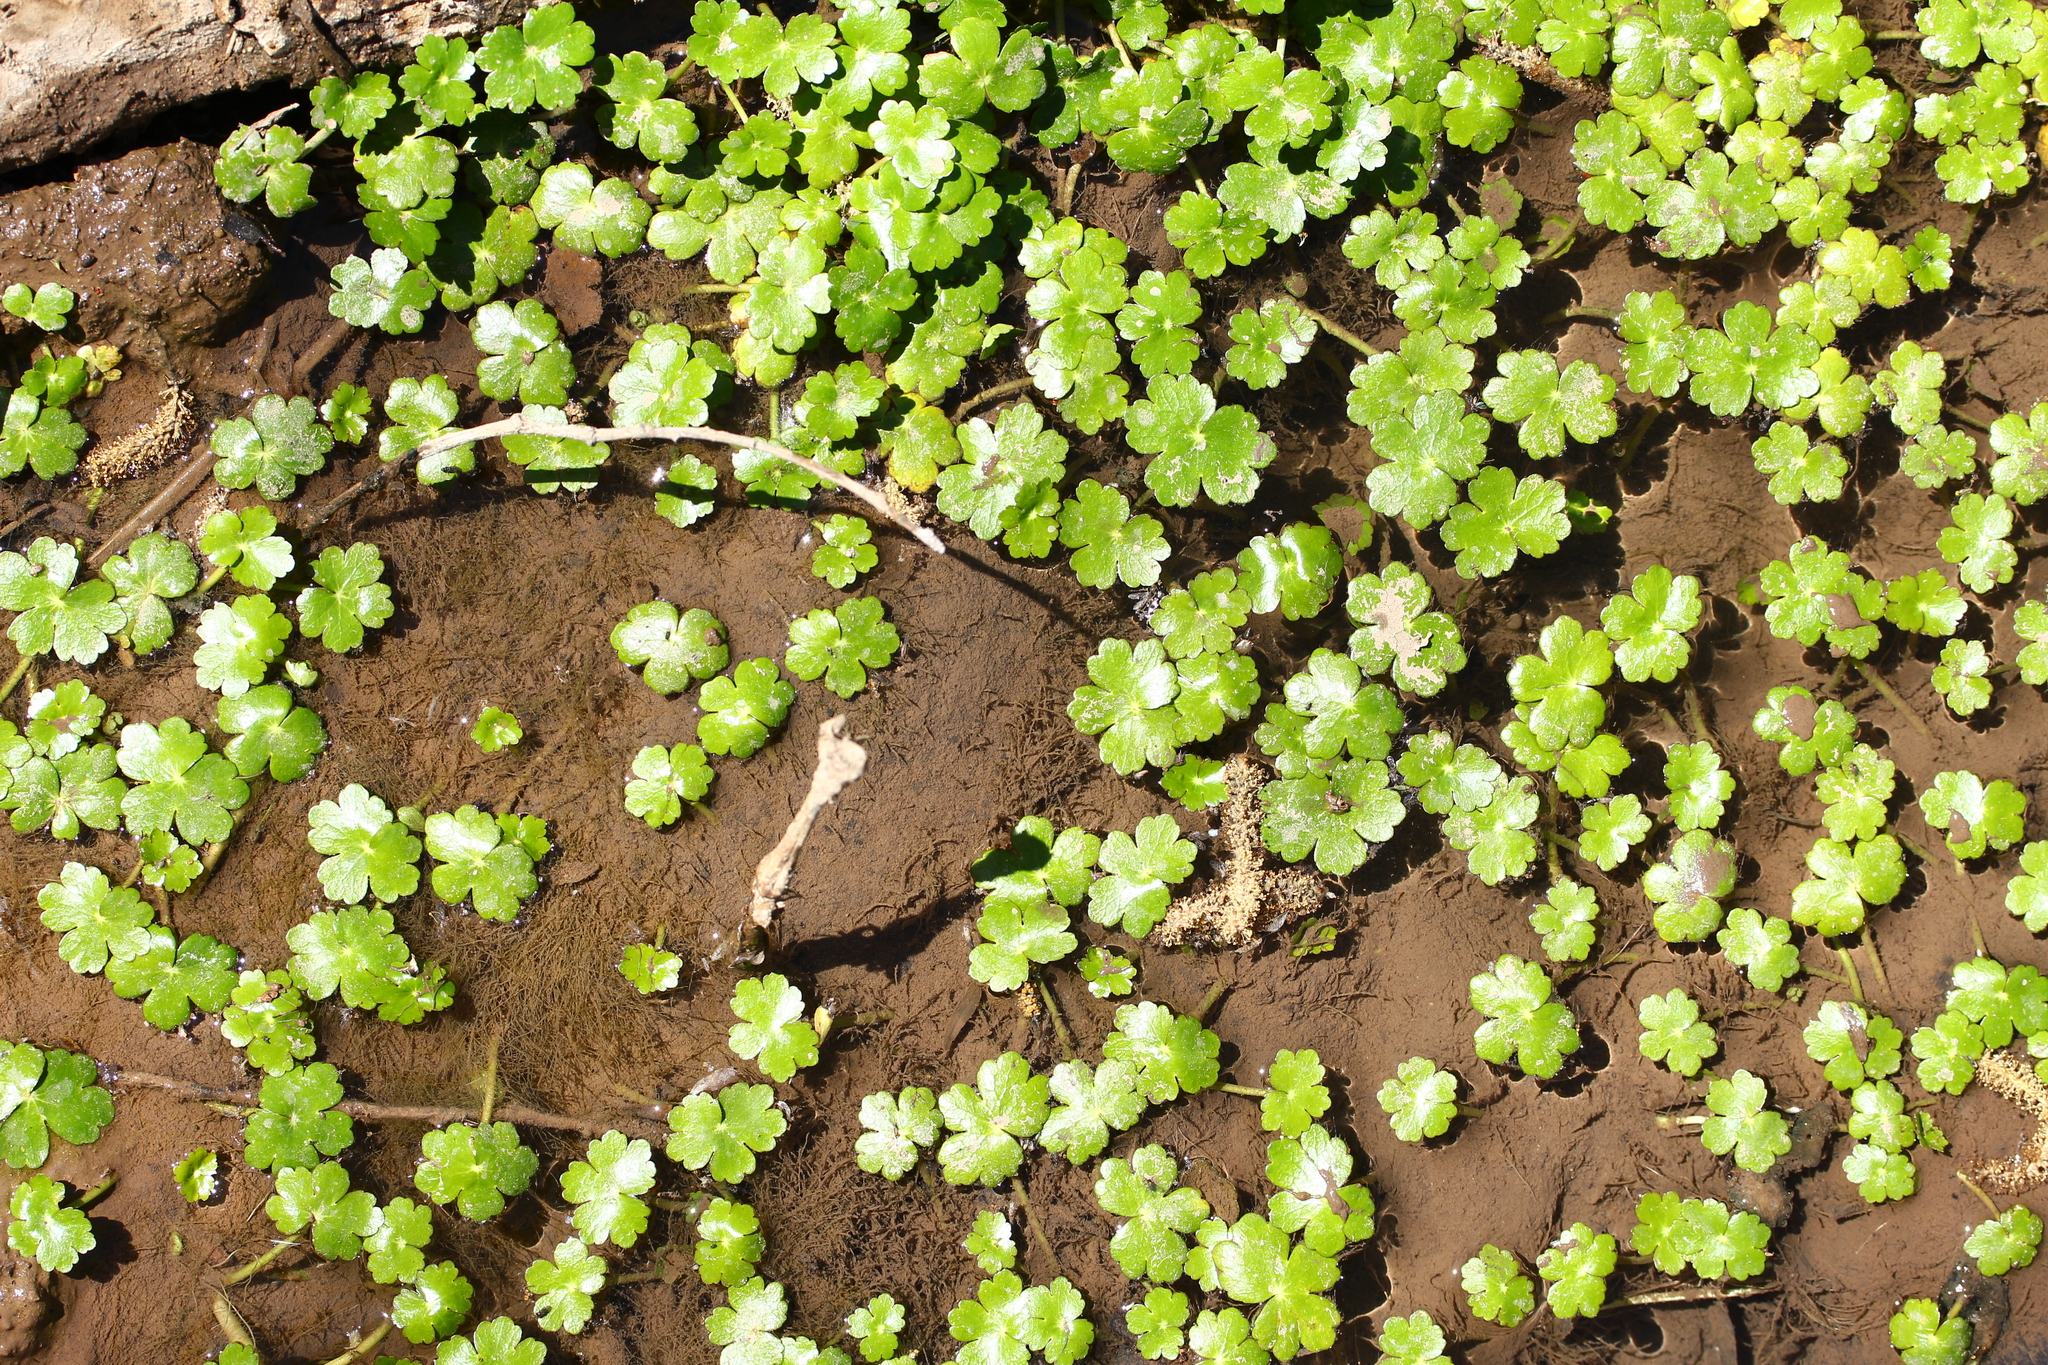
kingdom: Plantae
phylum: Tracheophyta
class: Magnoliopsida
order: Apiales
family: Araliaceae
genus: Hydrocotyle
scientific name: Hydrocotyle ranunculoides
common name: Floating pennywort
